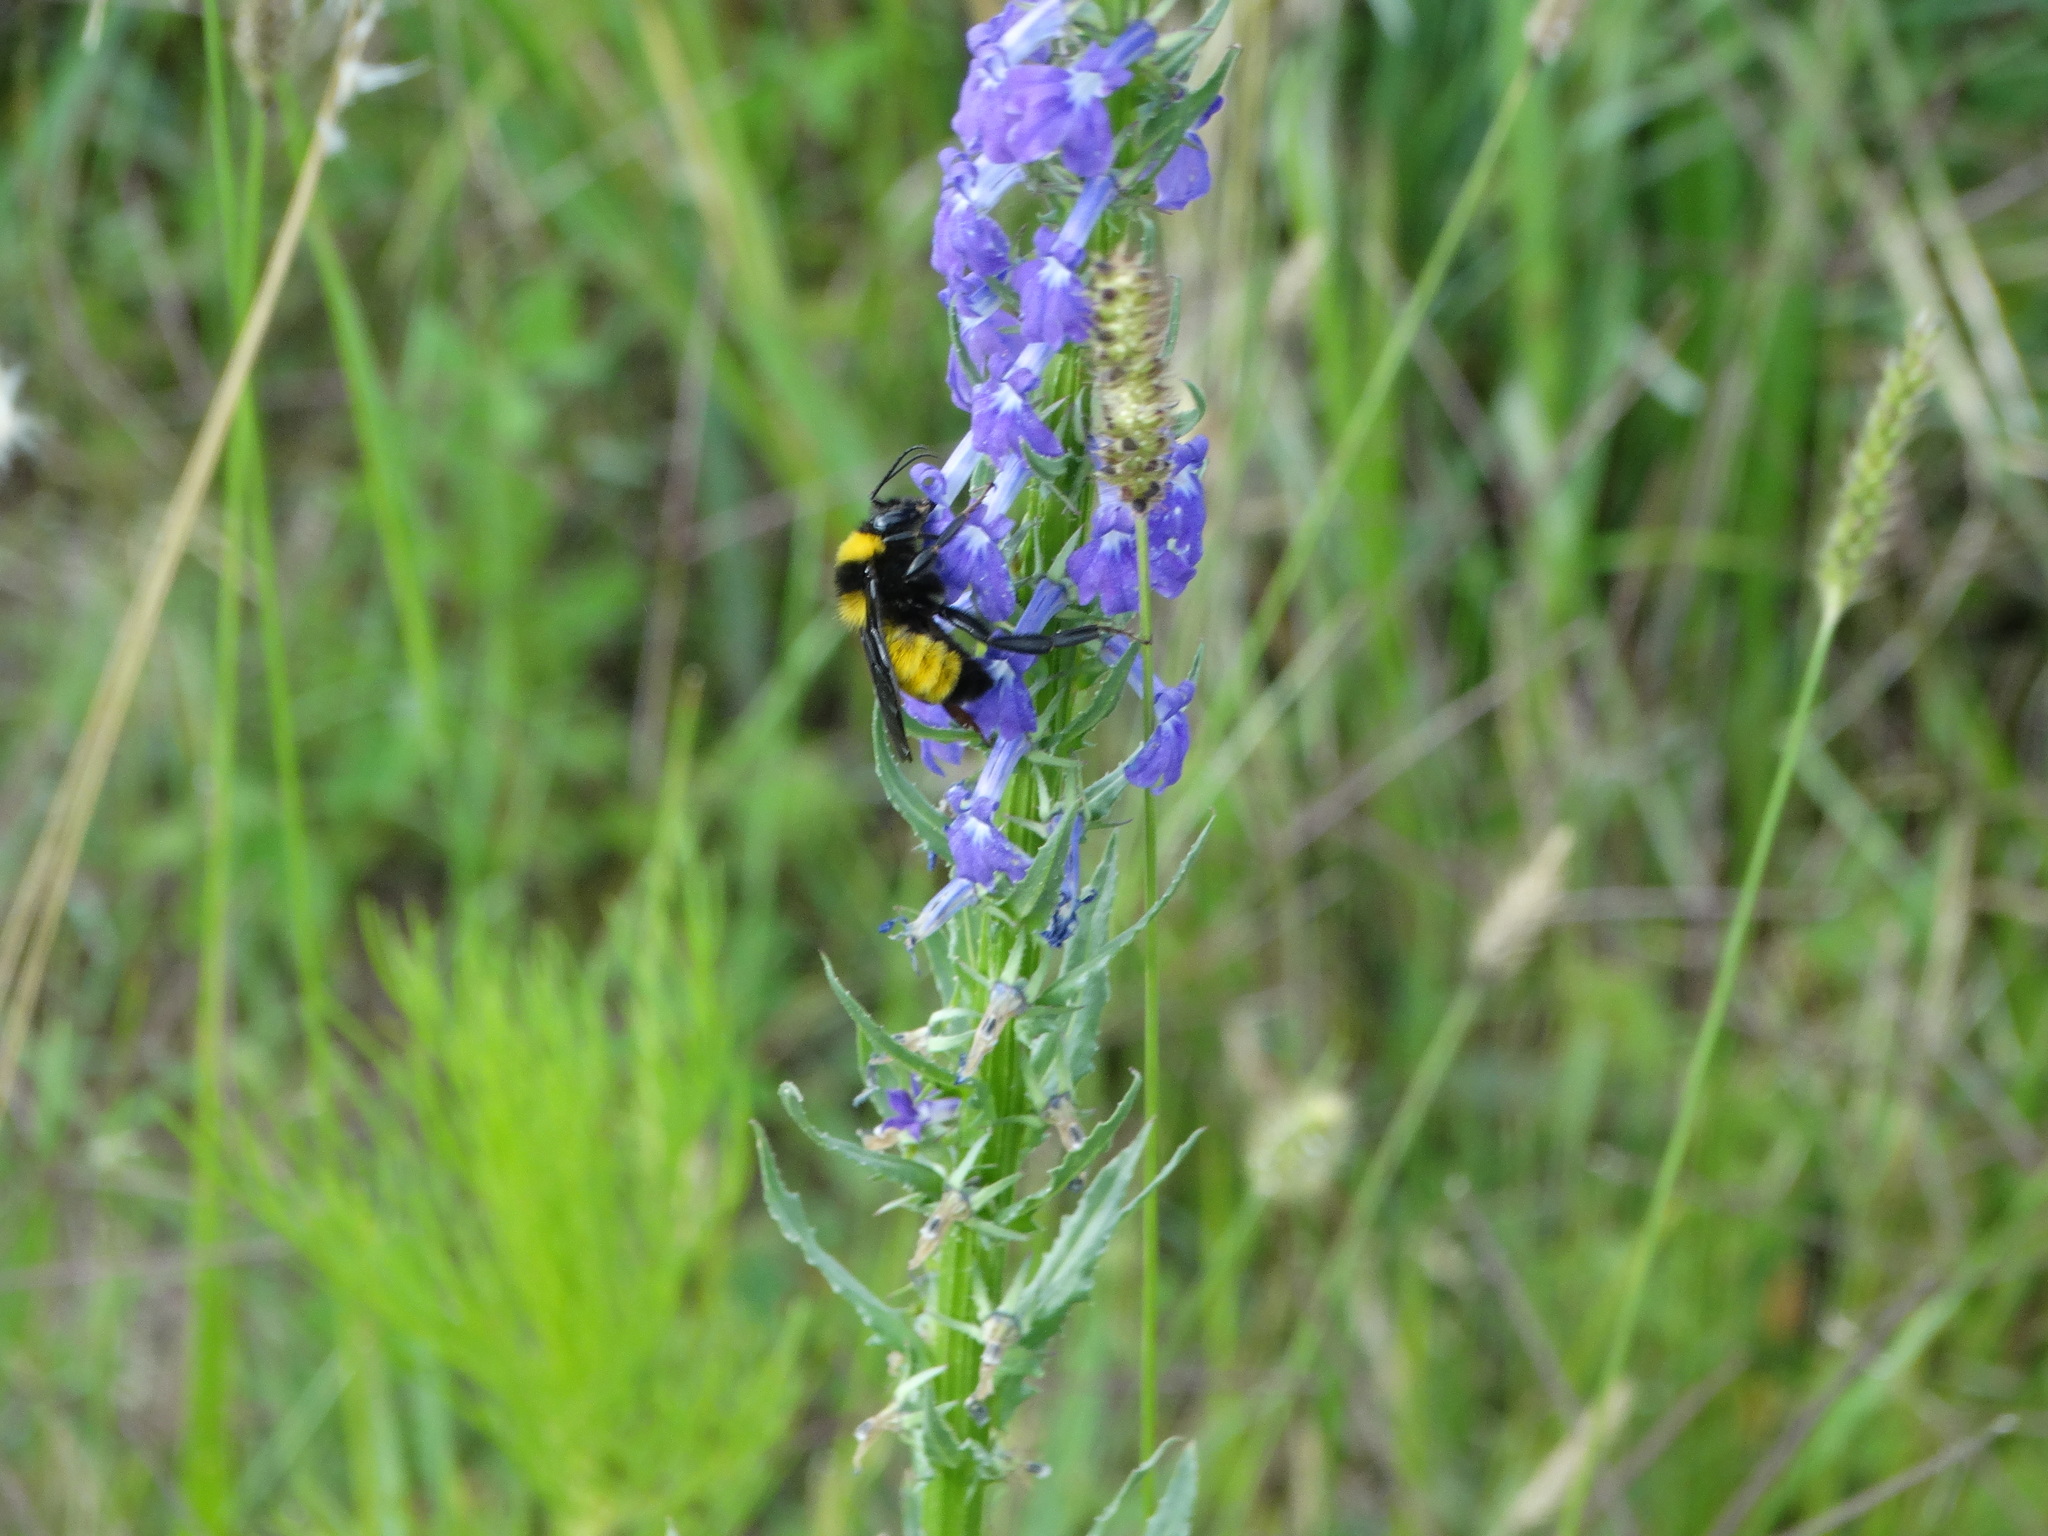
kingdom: Animalia
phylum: Arthropoda
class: Insecta
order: Hymenoptera
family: Apidae
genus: Bombus
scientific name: Bombus sonorus
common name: Sonoran bumble bee
